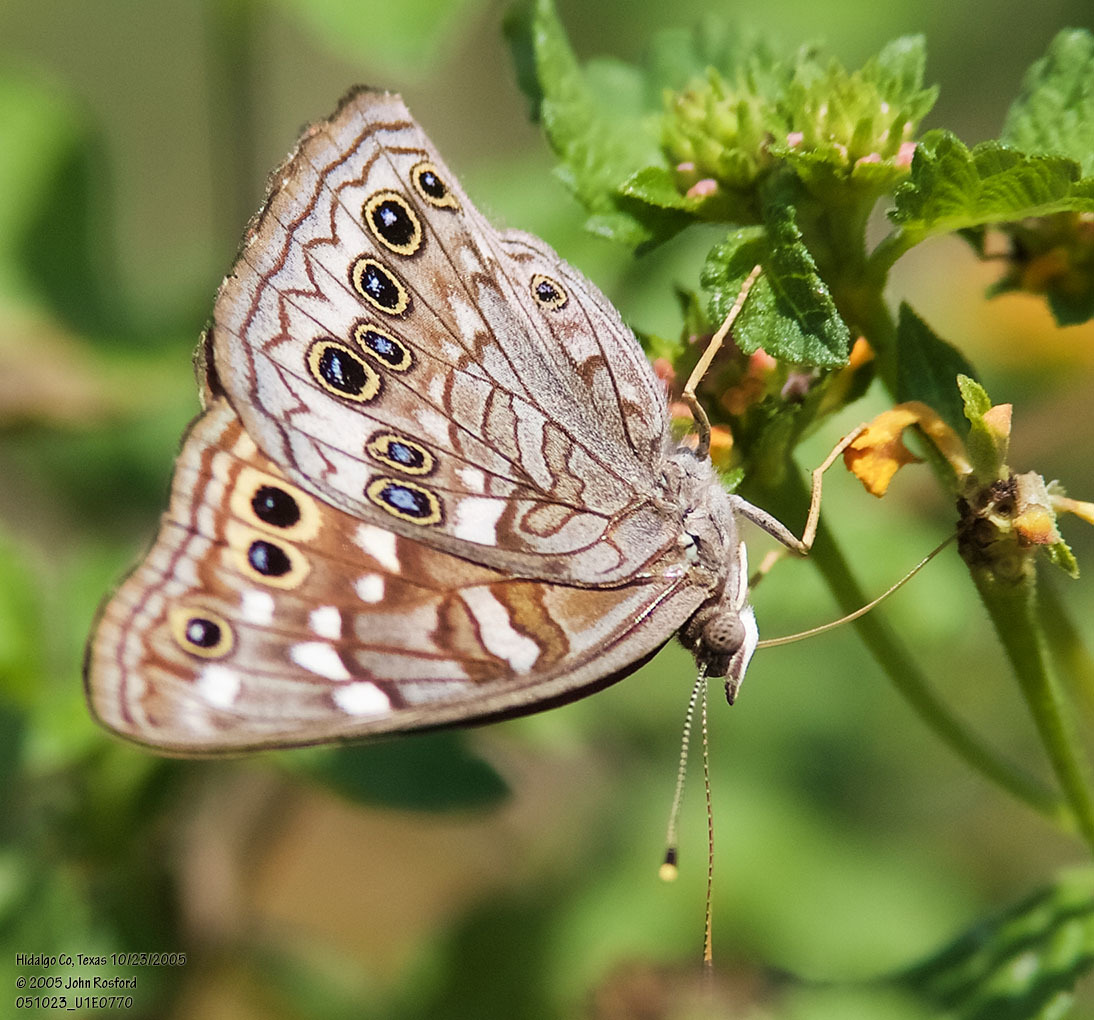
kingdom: Animalia
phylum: Arthropoda
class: Insecta
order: Lepidoptera
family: Nymphalidae
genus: Asterocampa
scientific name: Asterocampa leilia
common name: Empress leilia
